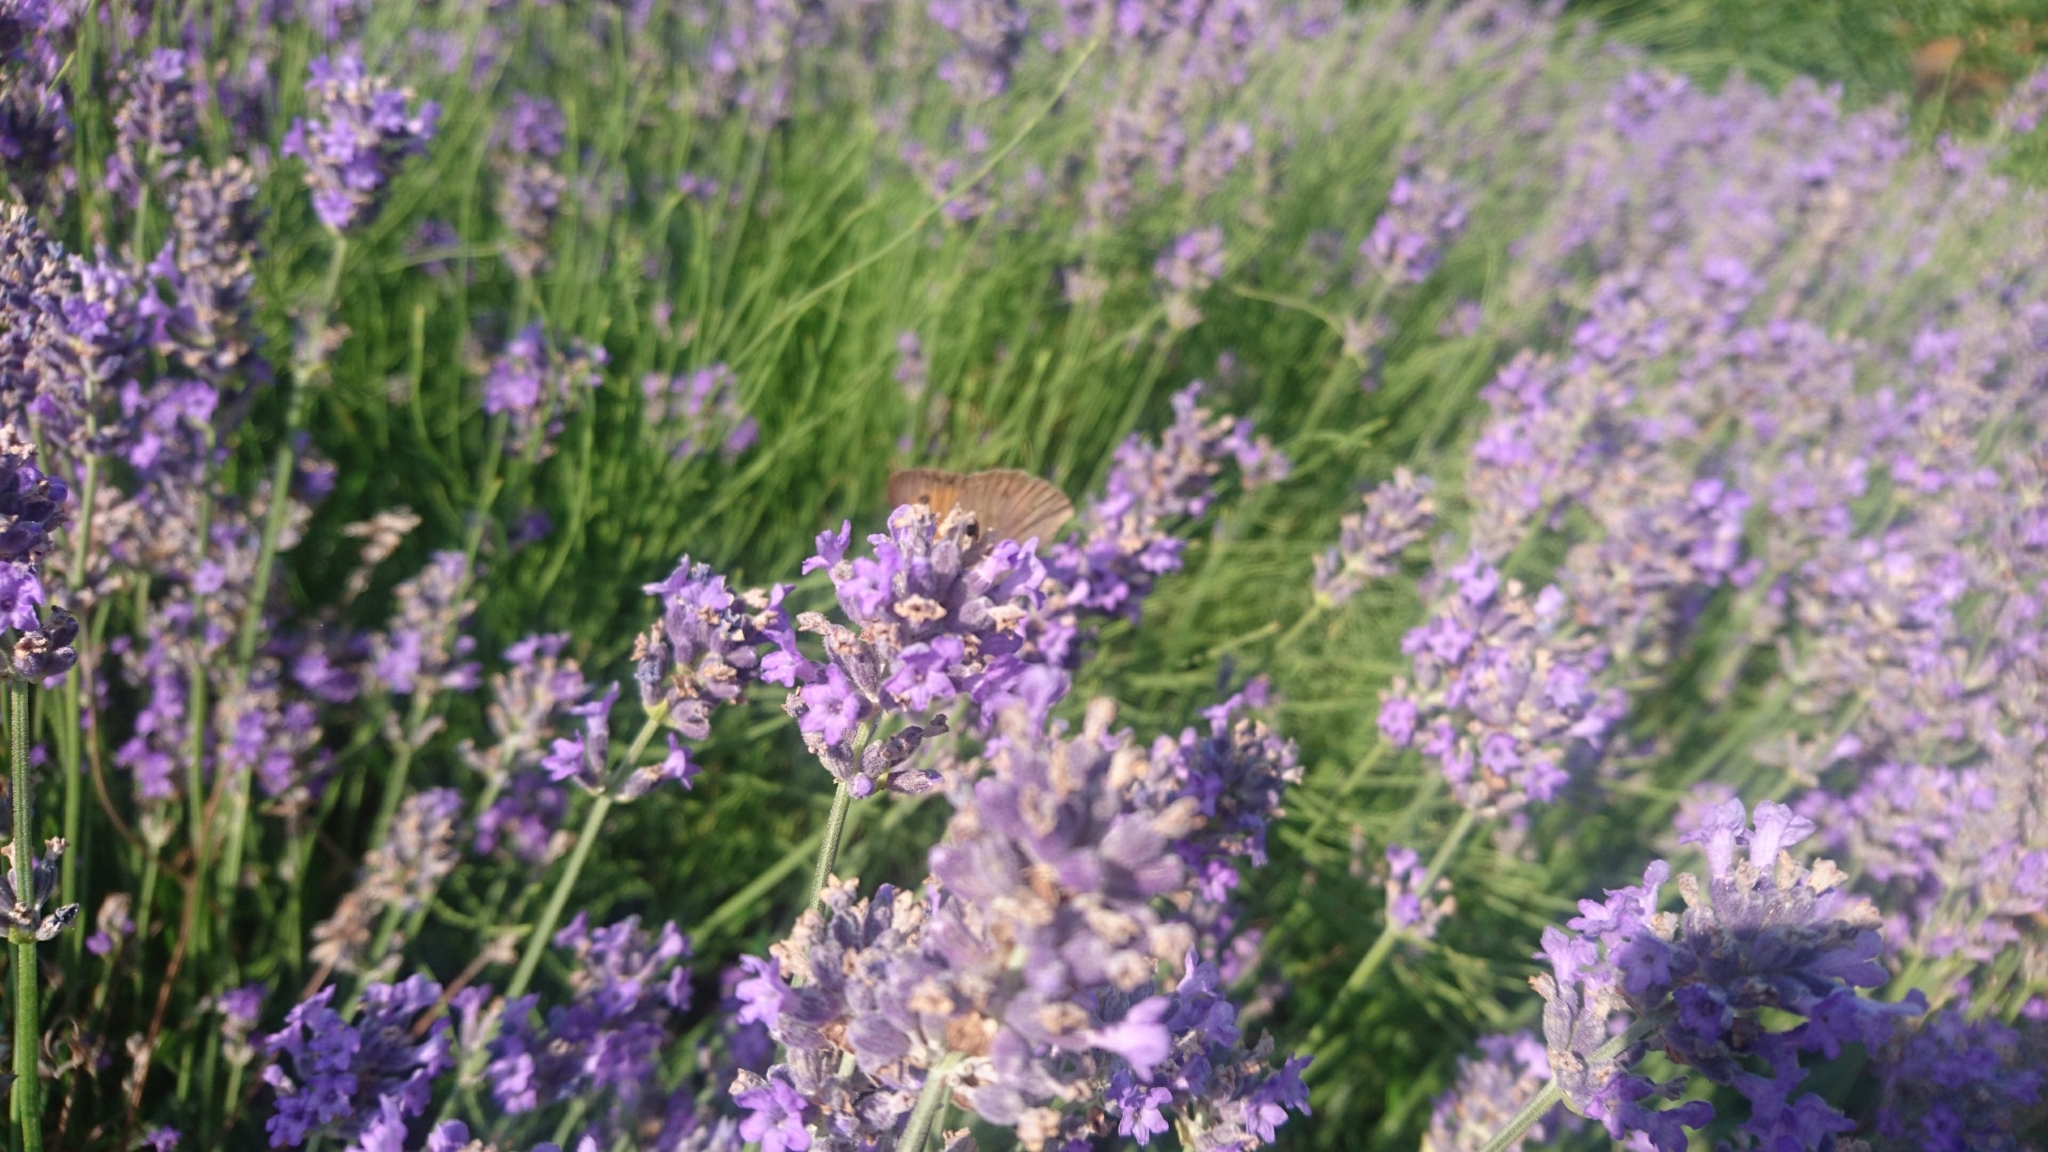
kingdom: Animalia
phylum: Arthropoda
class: Insecta
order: Lepidoptera
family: Nymphalidae
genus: Maniola
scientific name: Maniola jurtina
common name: Meadow brown
